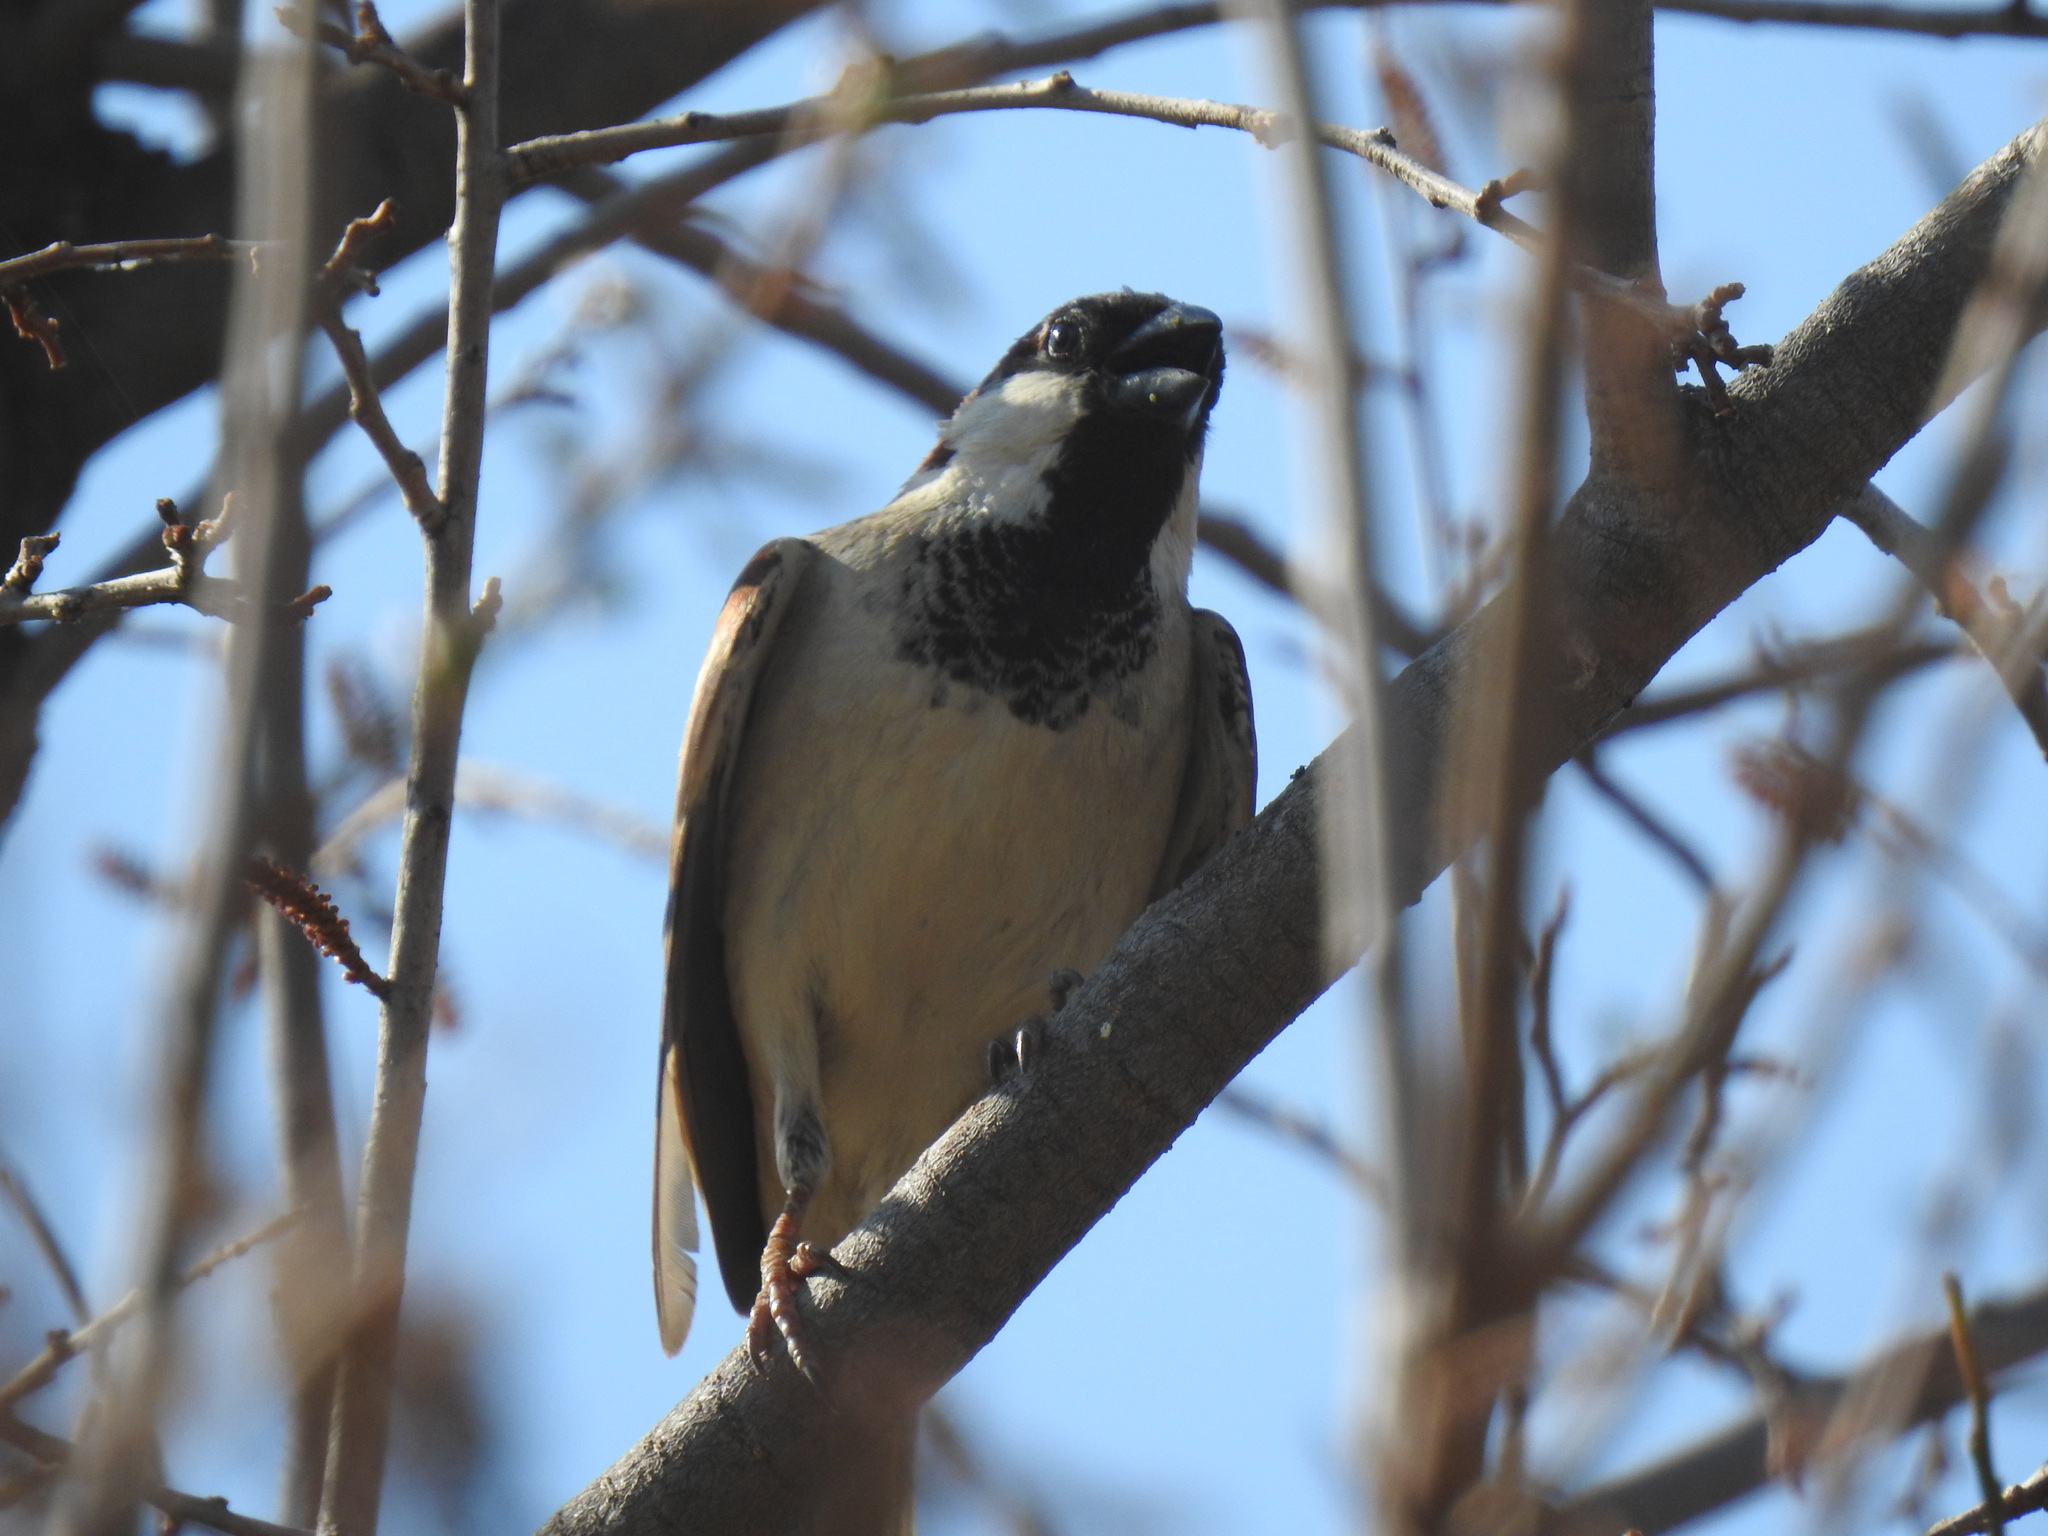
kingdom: Animalia
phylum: Chordata
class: Aves
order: Passeriformes
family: Passeridae
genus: Passer
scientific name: Passer domesticus
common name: House sparrow
